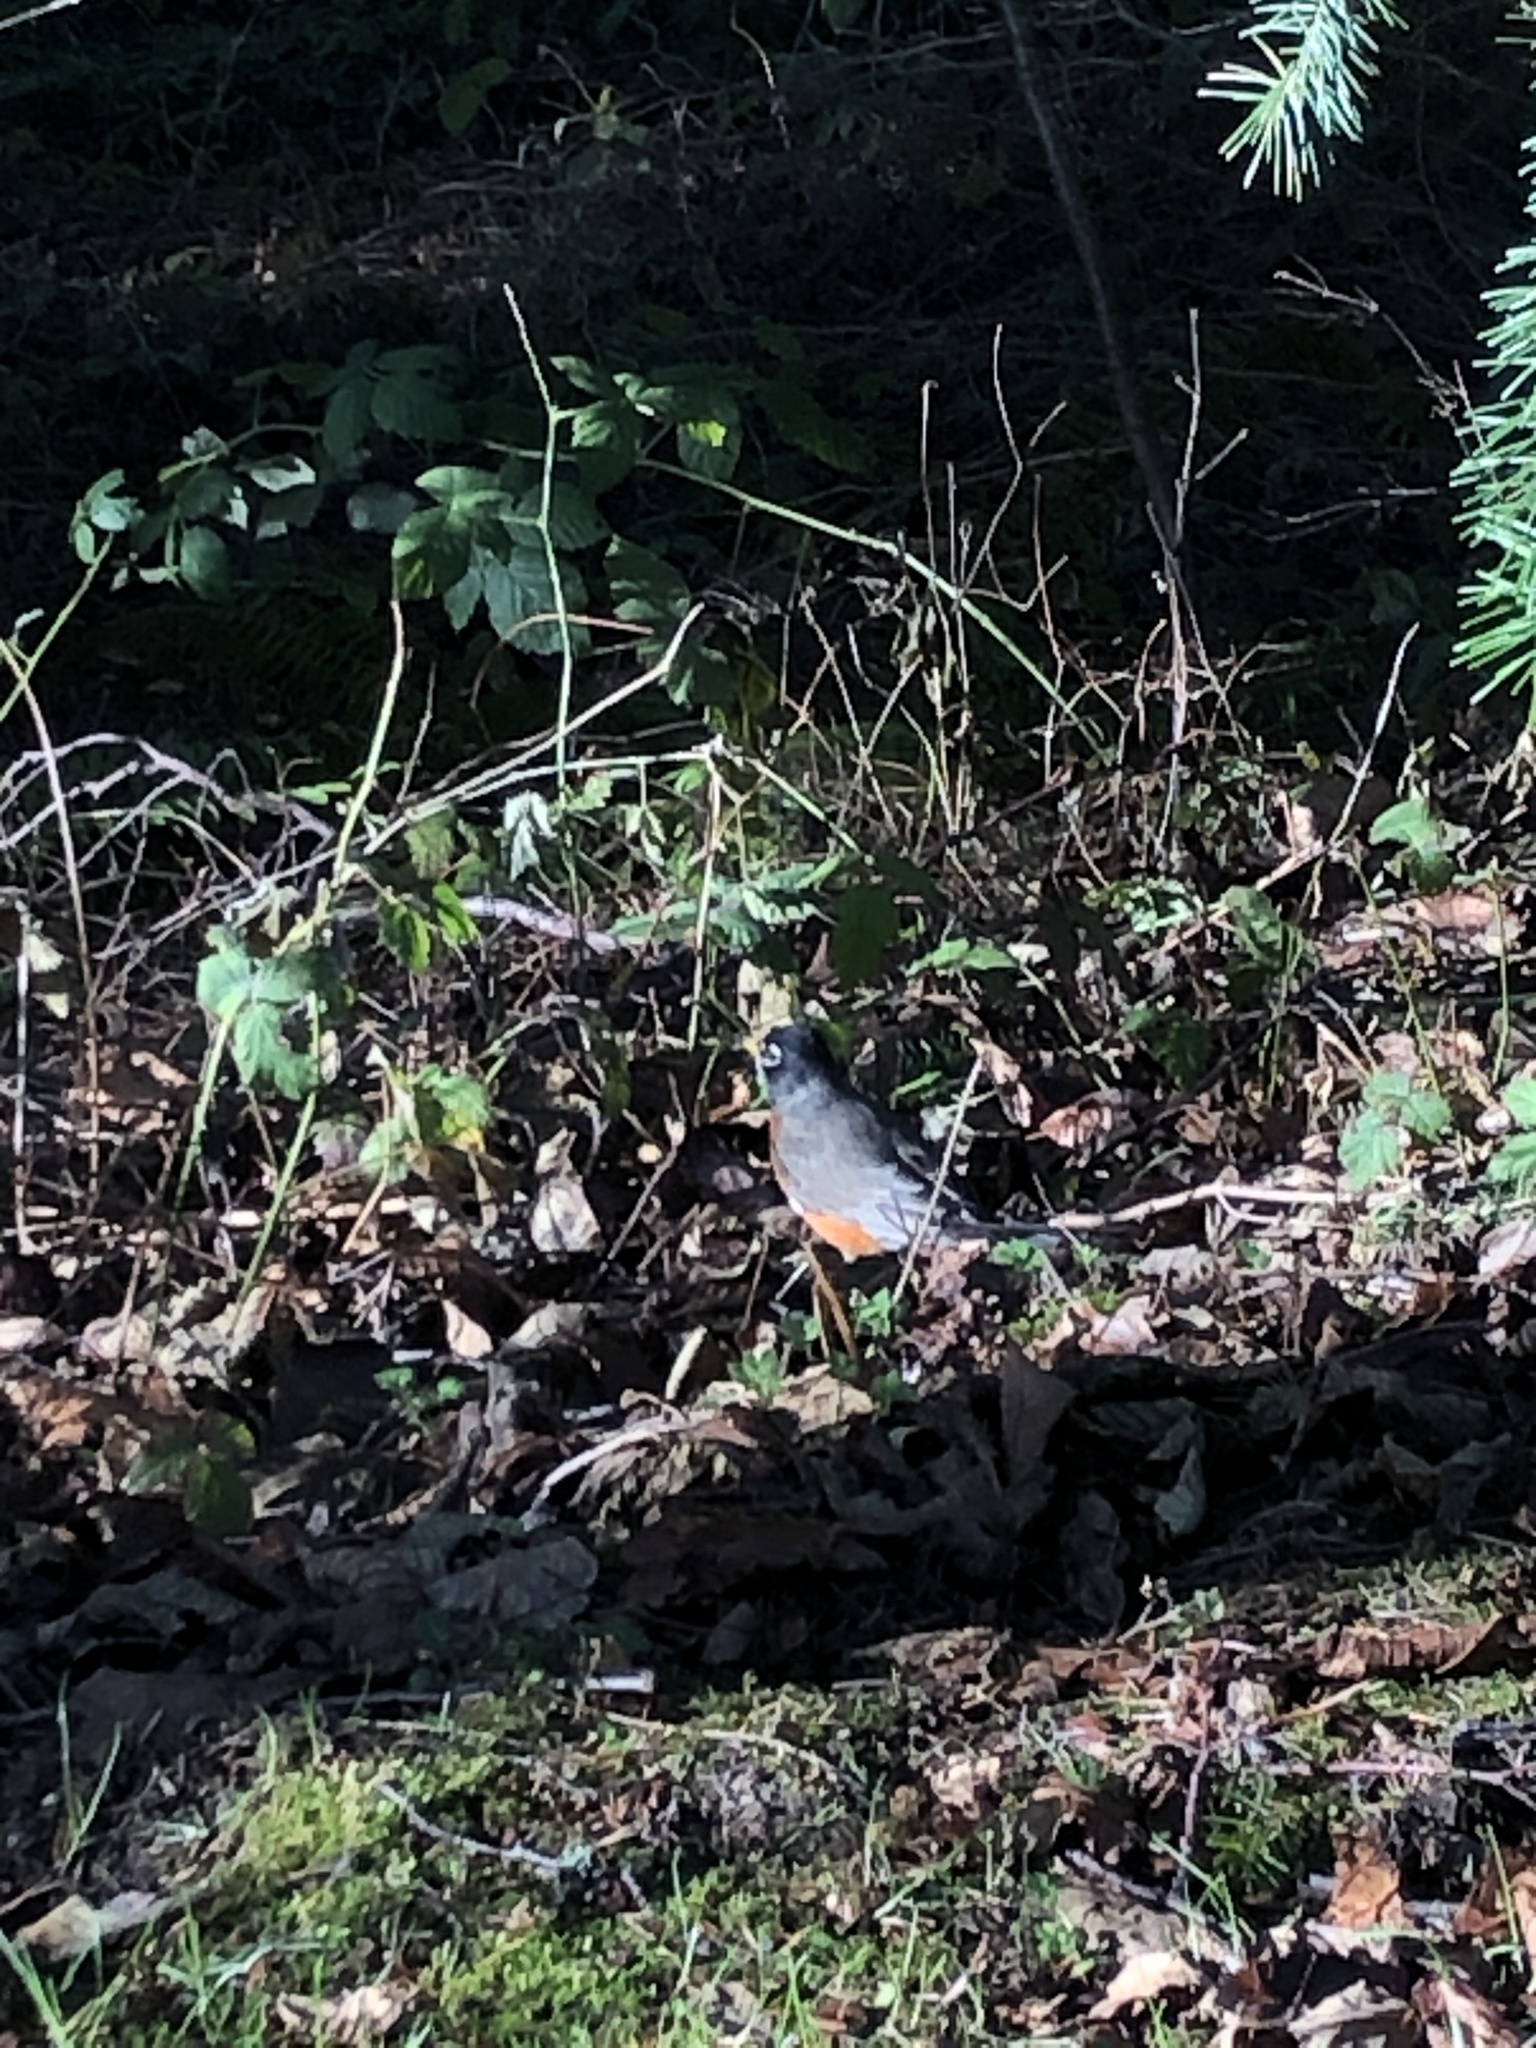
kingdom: Animalia
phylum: Chordata
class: Aves
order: Passeriformes
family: Turdidae
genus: Turdus
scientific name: Turdus migratorius
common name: American robin
